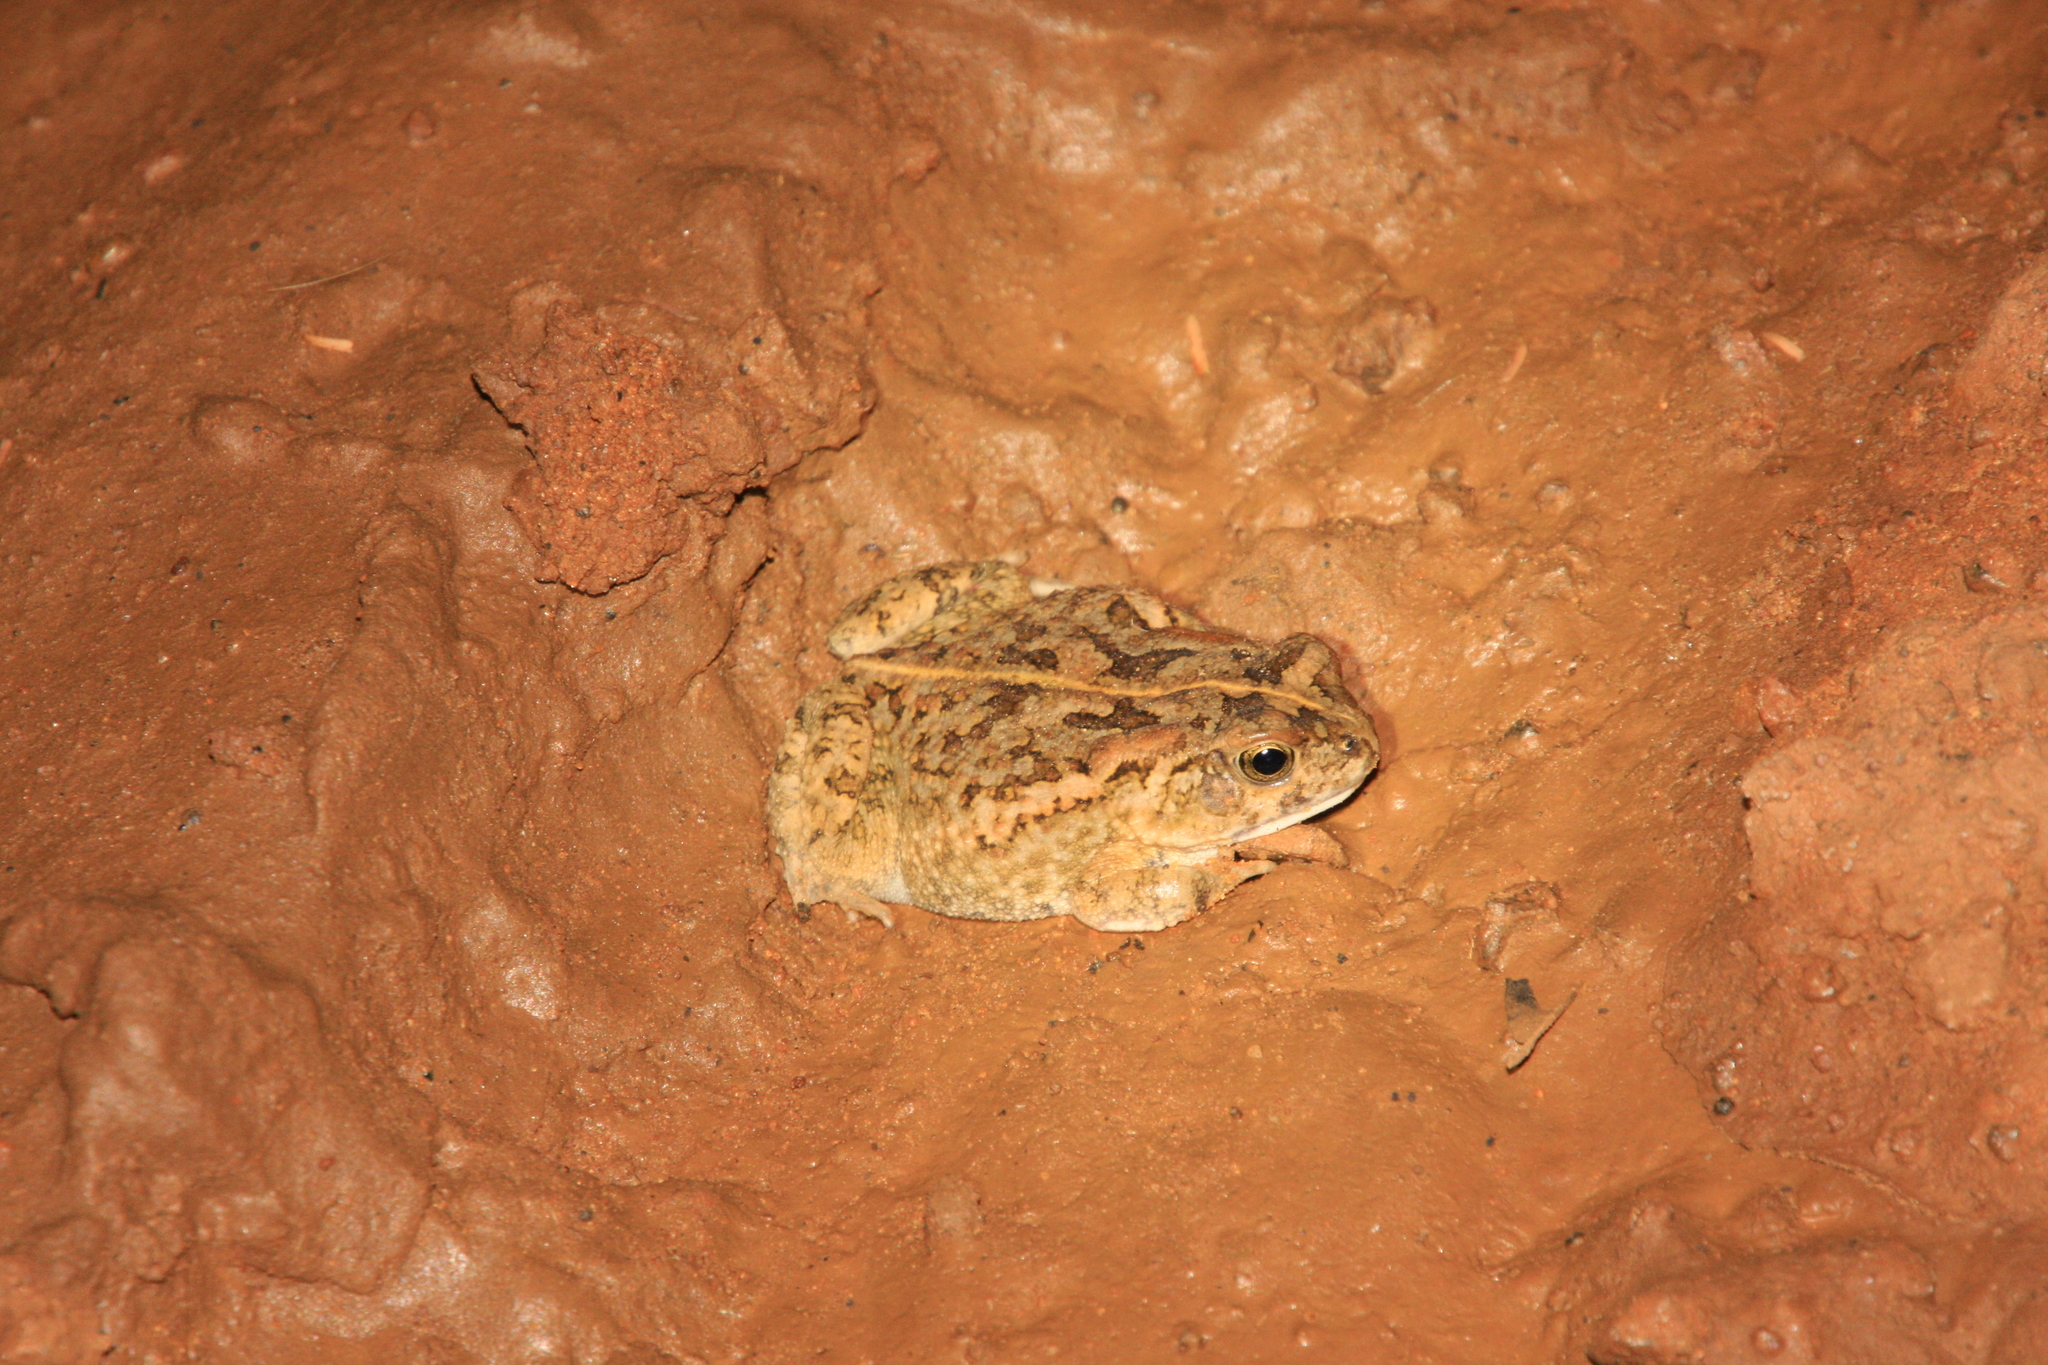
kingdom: Animalia
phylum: Chordata
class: Amphibia
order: Anura
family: Bufonidae
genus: Sclerophrys
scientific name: Sclerophrys xeros
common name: Subdesert toad
